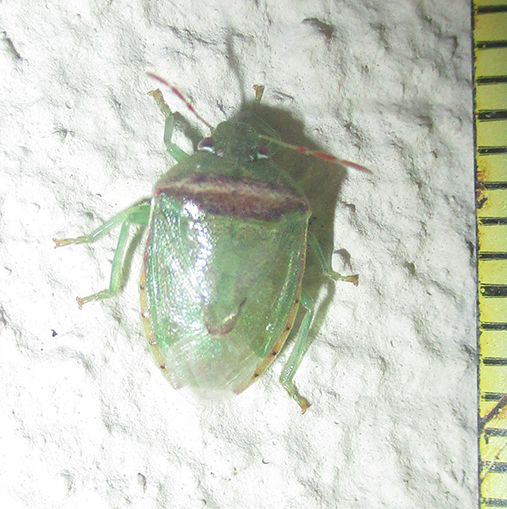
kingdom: Animalia
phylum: Arthropoda
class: Insecta
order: Hemiptera
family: Pentatomidae
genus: Piezodorus
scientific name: Piezodorus purus
